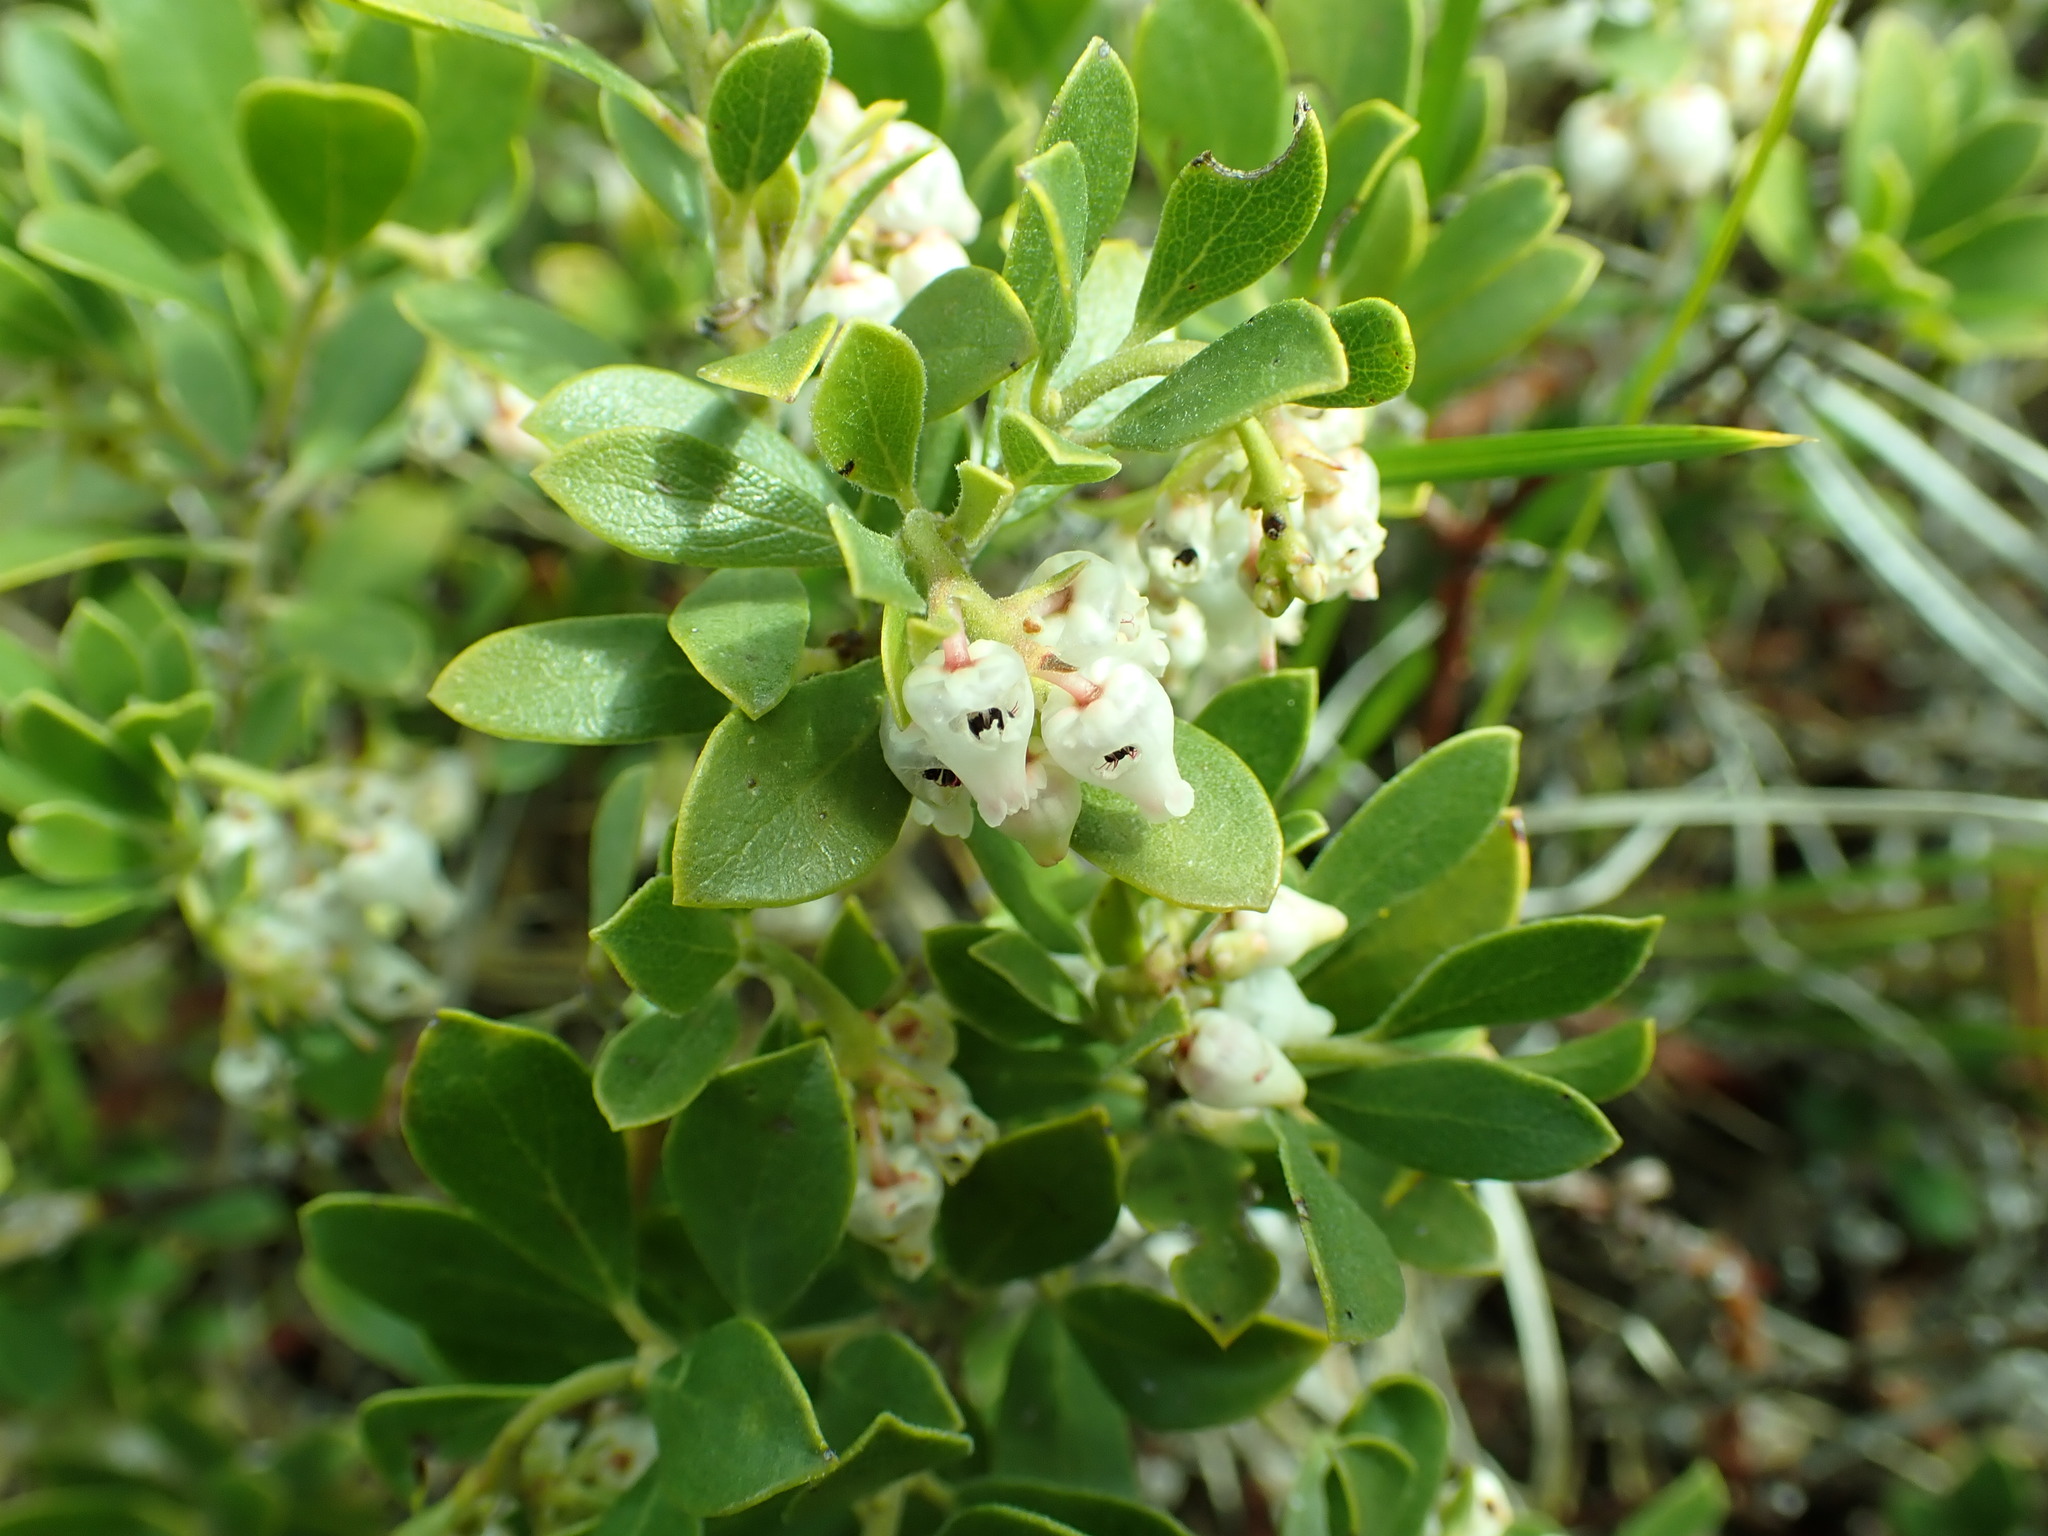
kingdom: Plantae
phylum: Tracheophyta
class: Magnoliopsida
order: Ericales
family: Ericaceae
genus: Arctostaphylos
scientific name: Arctostaphylos nevadensis
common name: Pinemat manzanita
